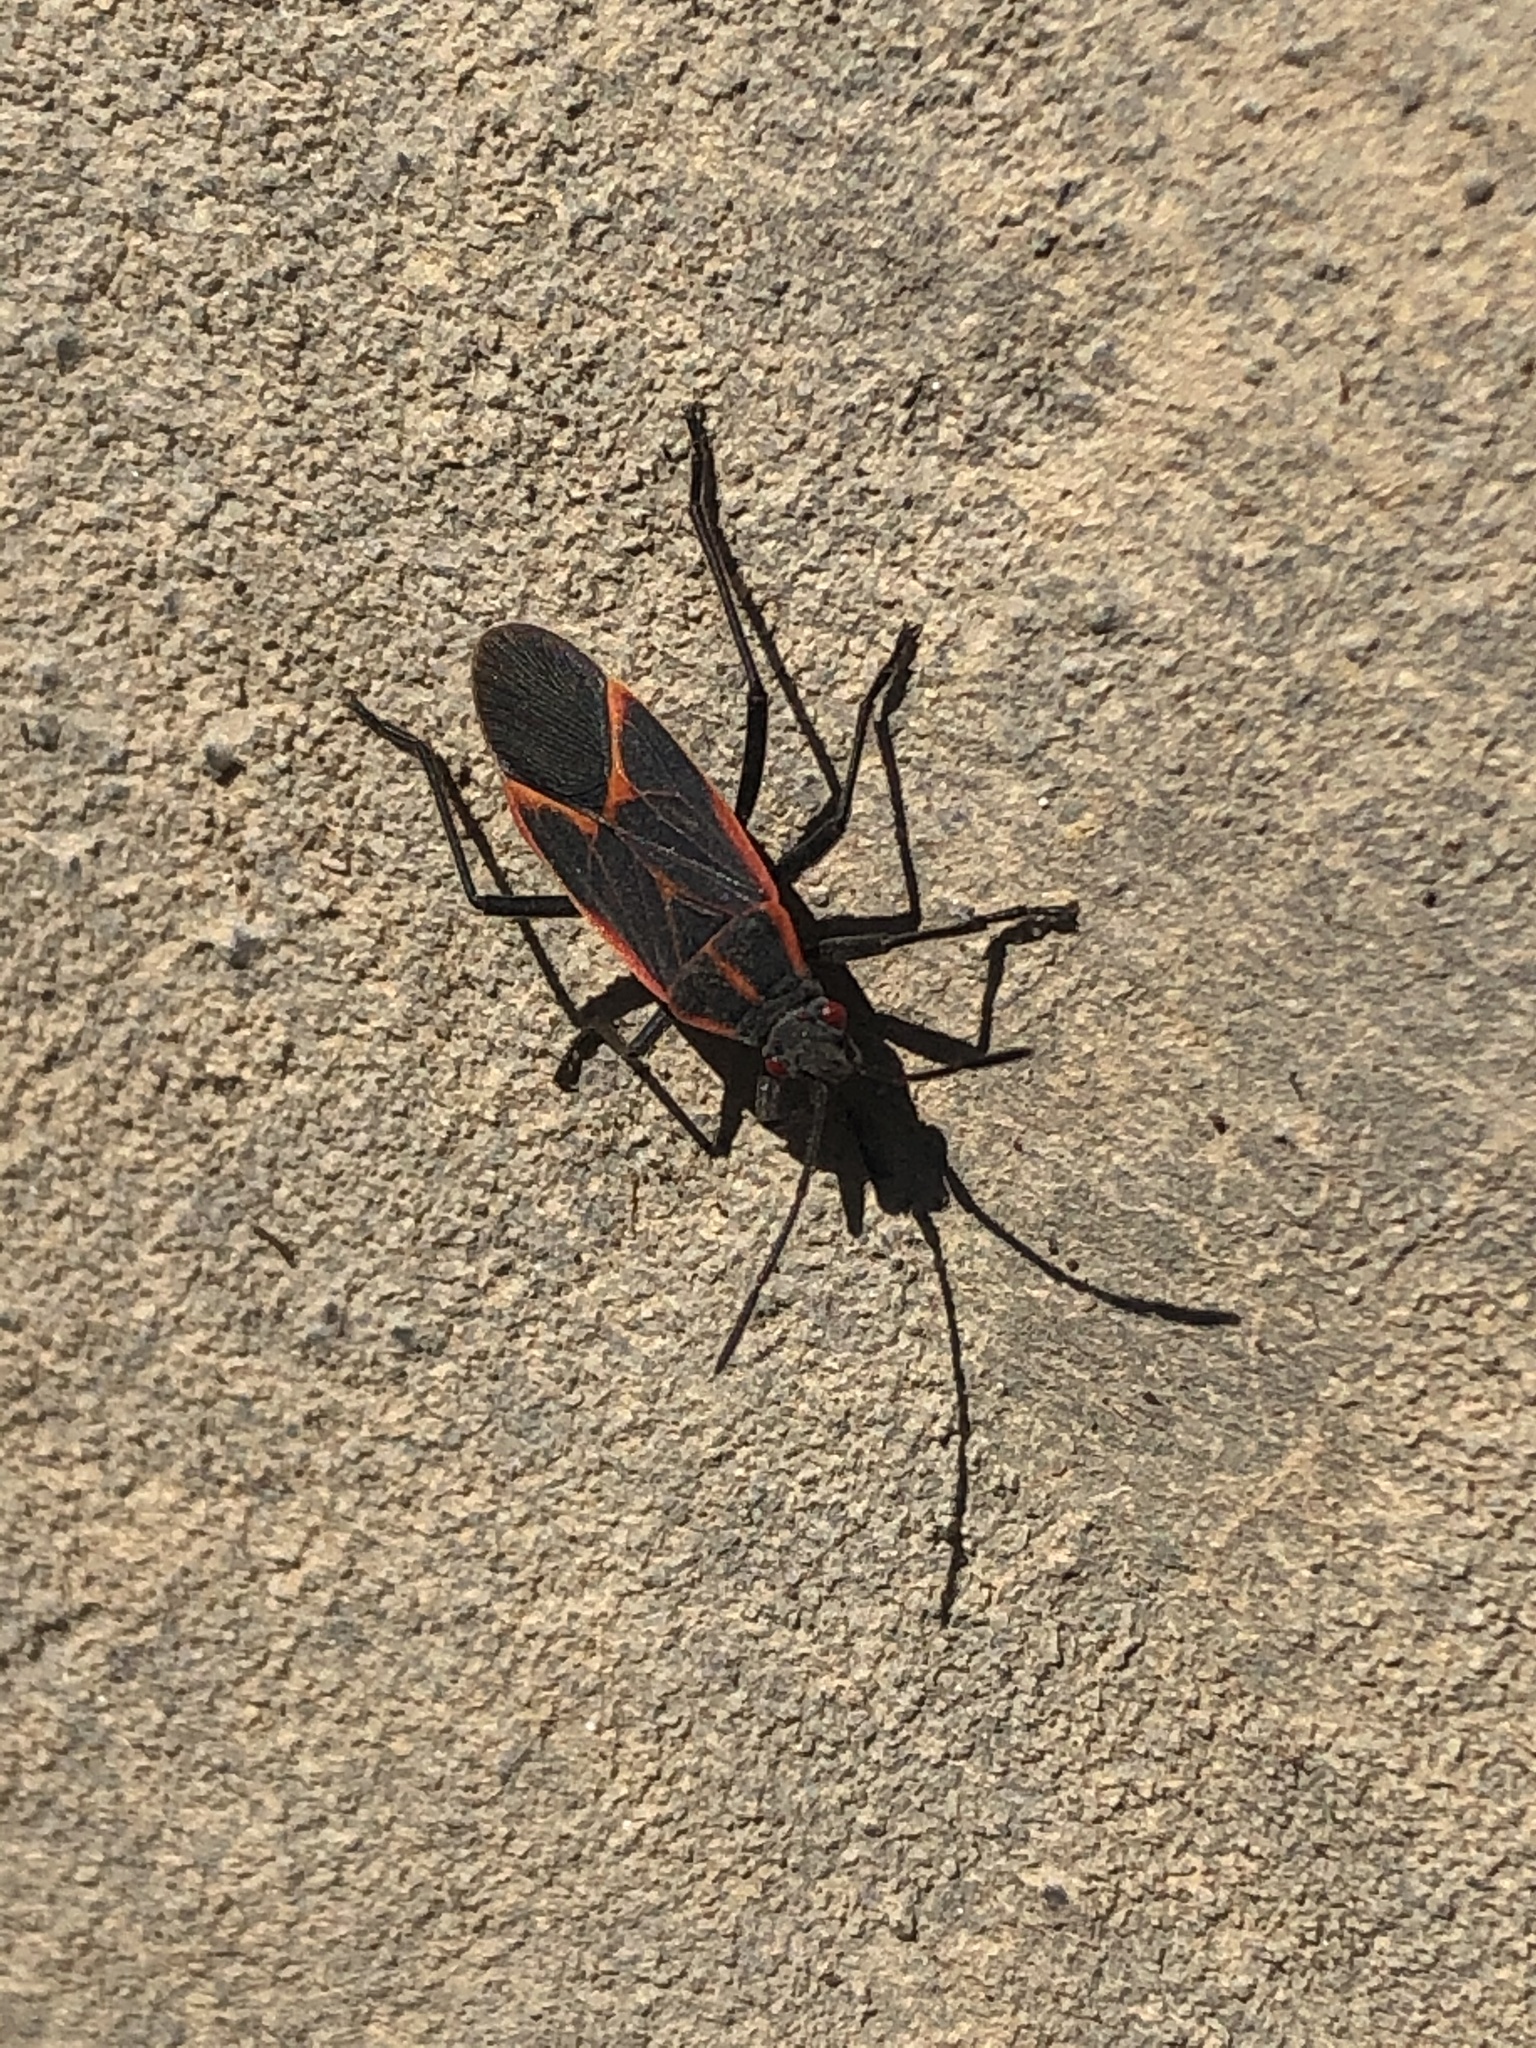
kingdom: Animalia
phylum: Arthropoda
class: Insecta
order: Hemiptera
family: Rhopalidae
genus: Boisea
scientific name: Boisea trivittata
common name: Boxelder bug
